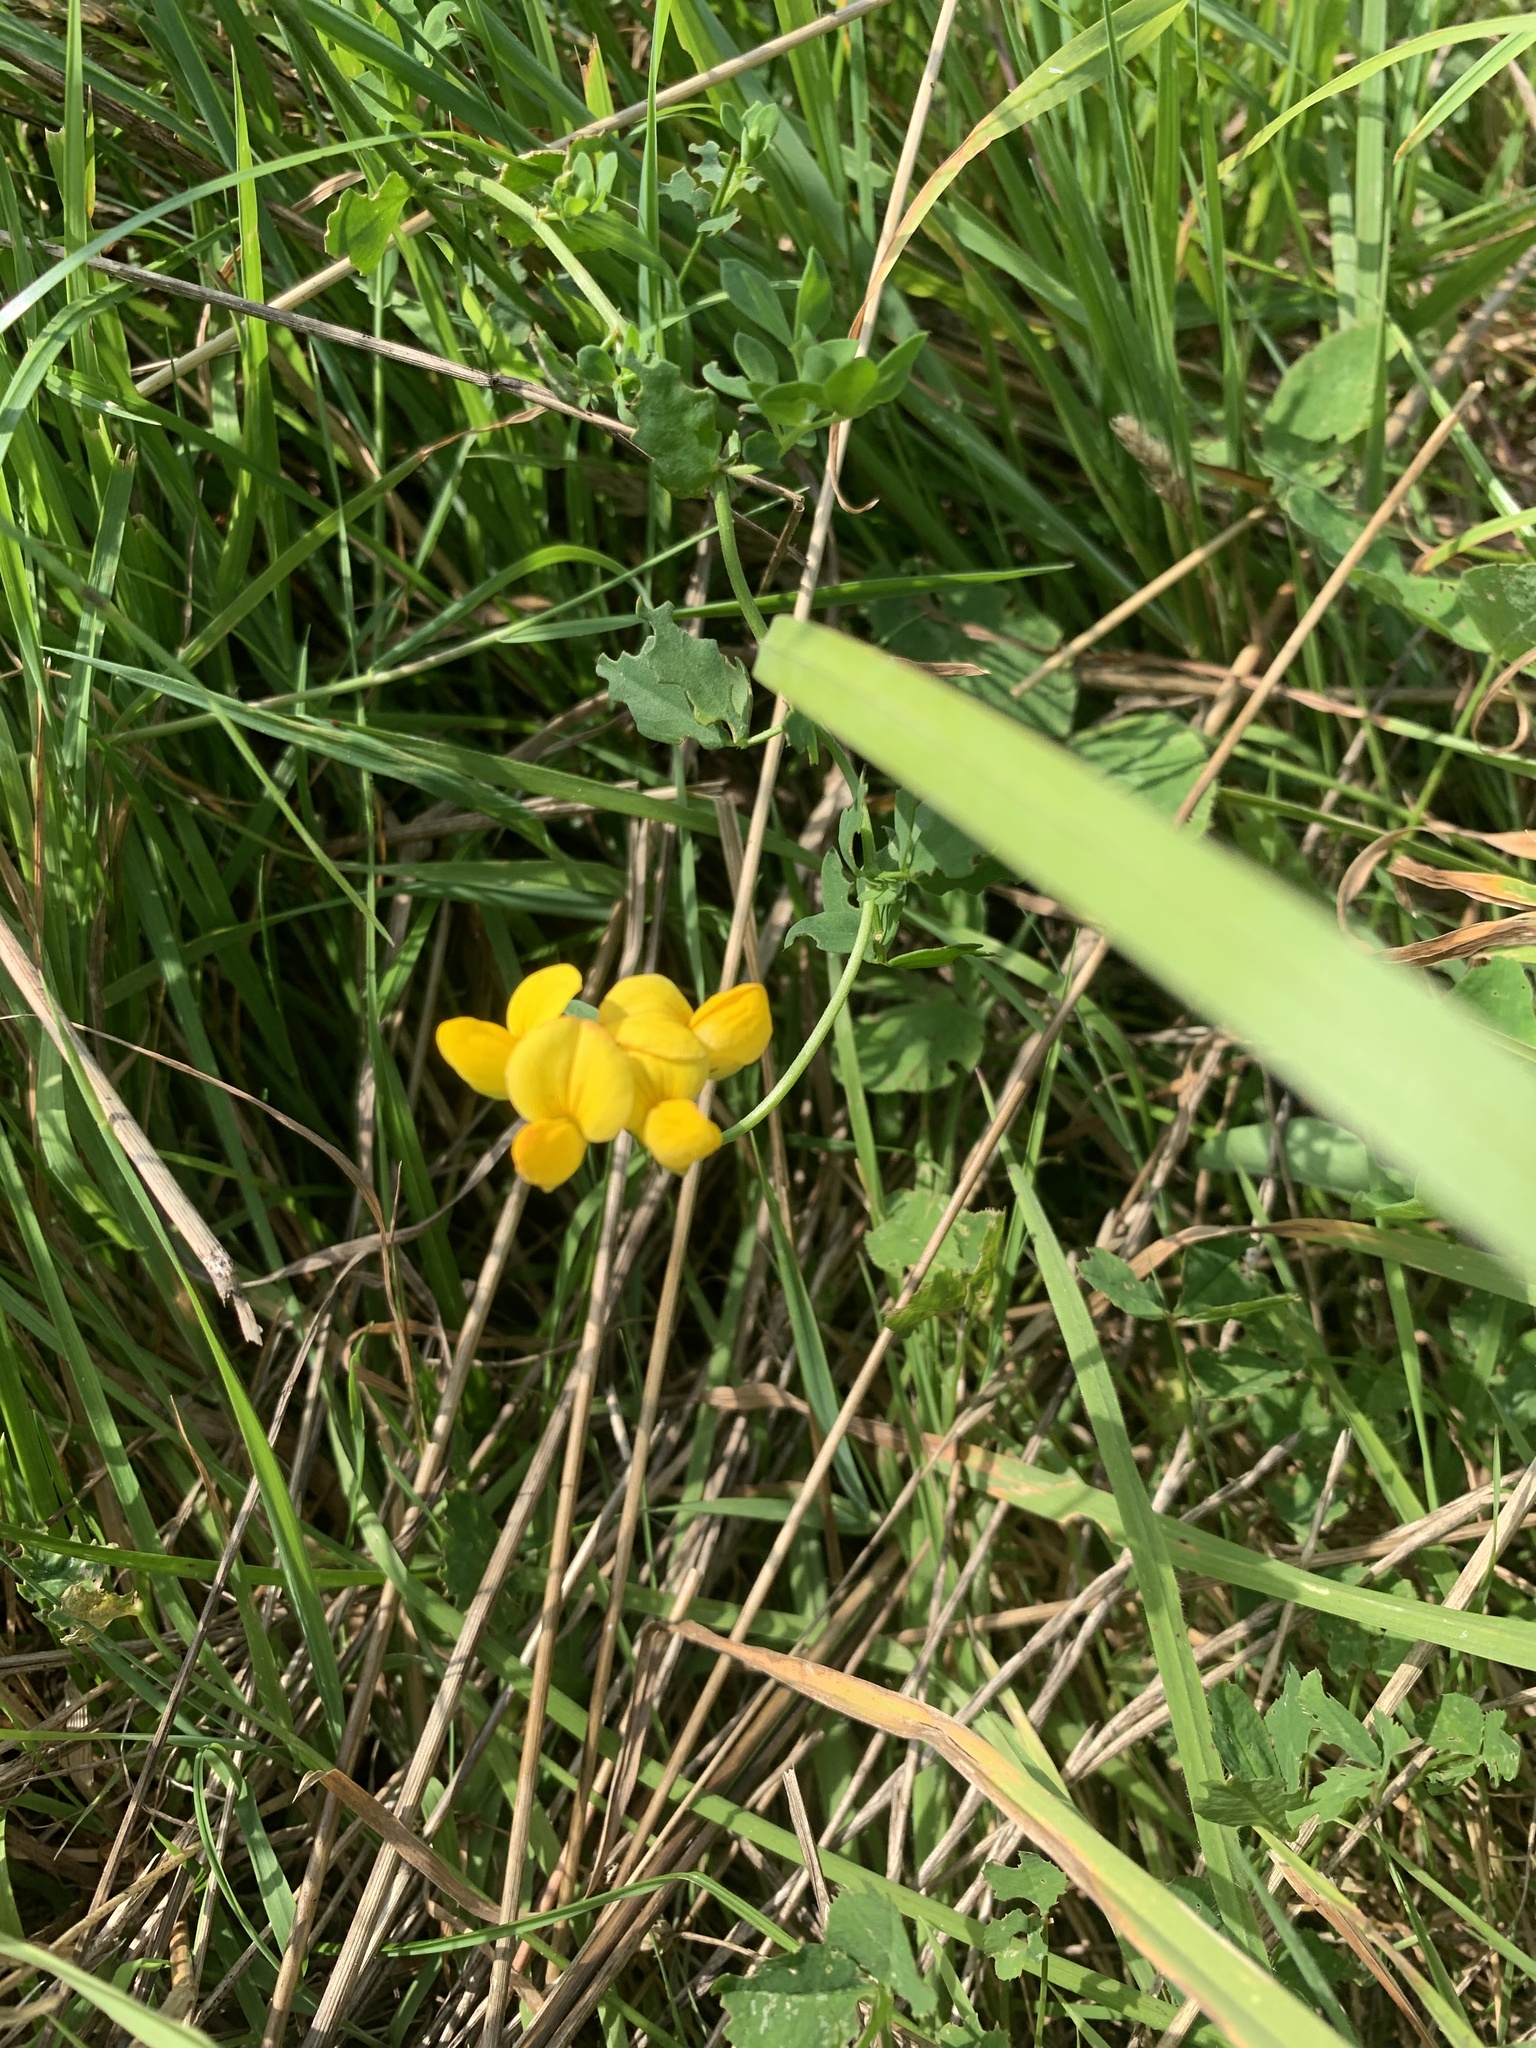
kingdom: Plantae
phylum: Tracheophyta
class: Magnoliopsida
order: Fabales
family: Fabaceae
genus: Lotus
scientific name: Lotus corniculatus
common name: Common bird's-foot-trefoil
